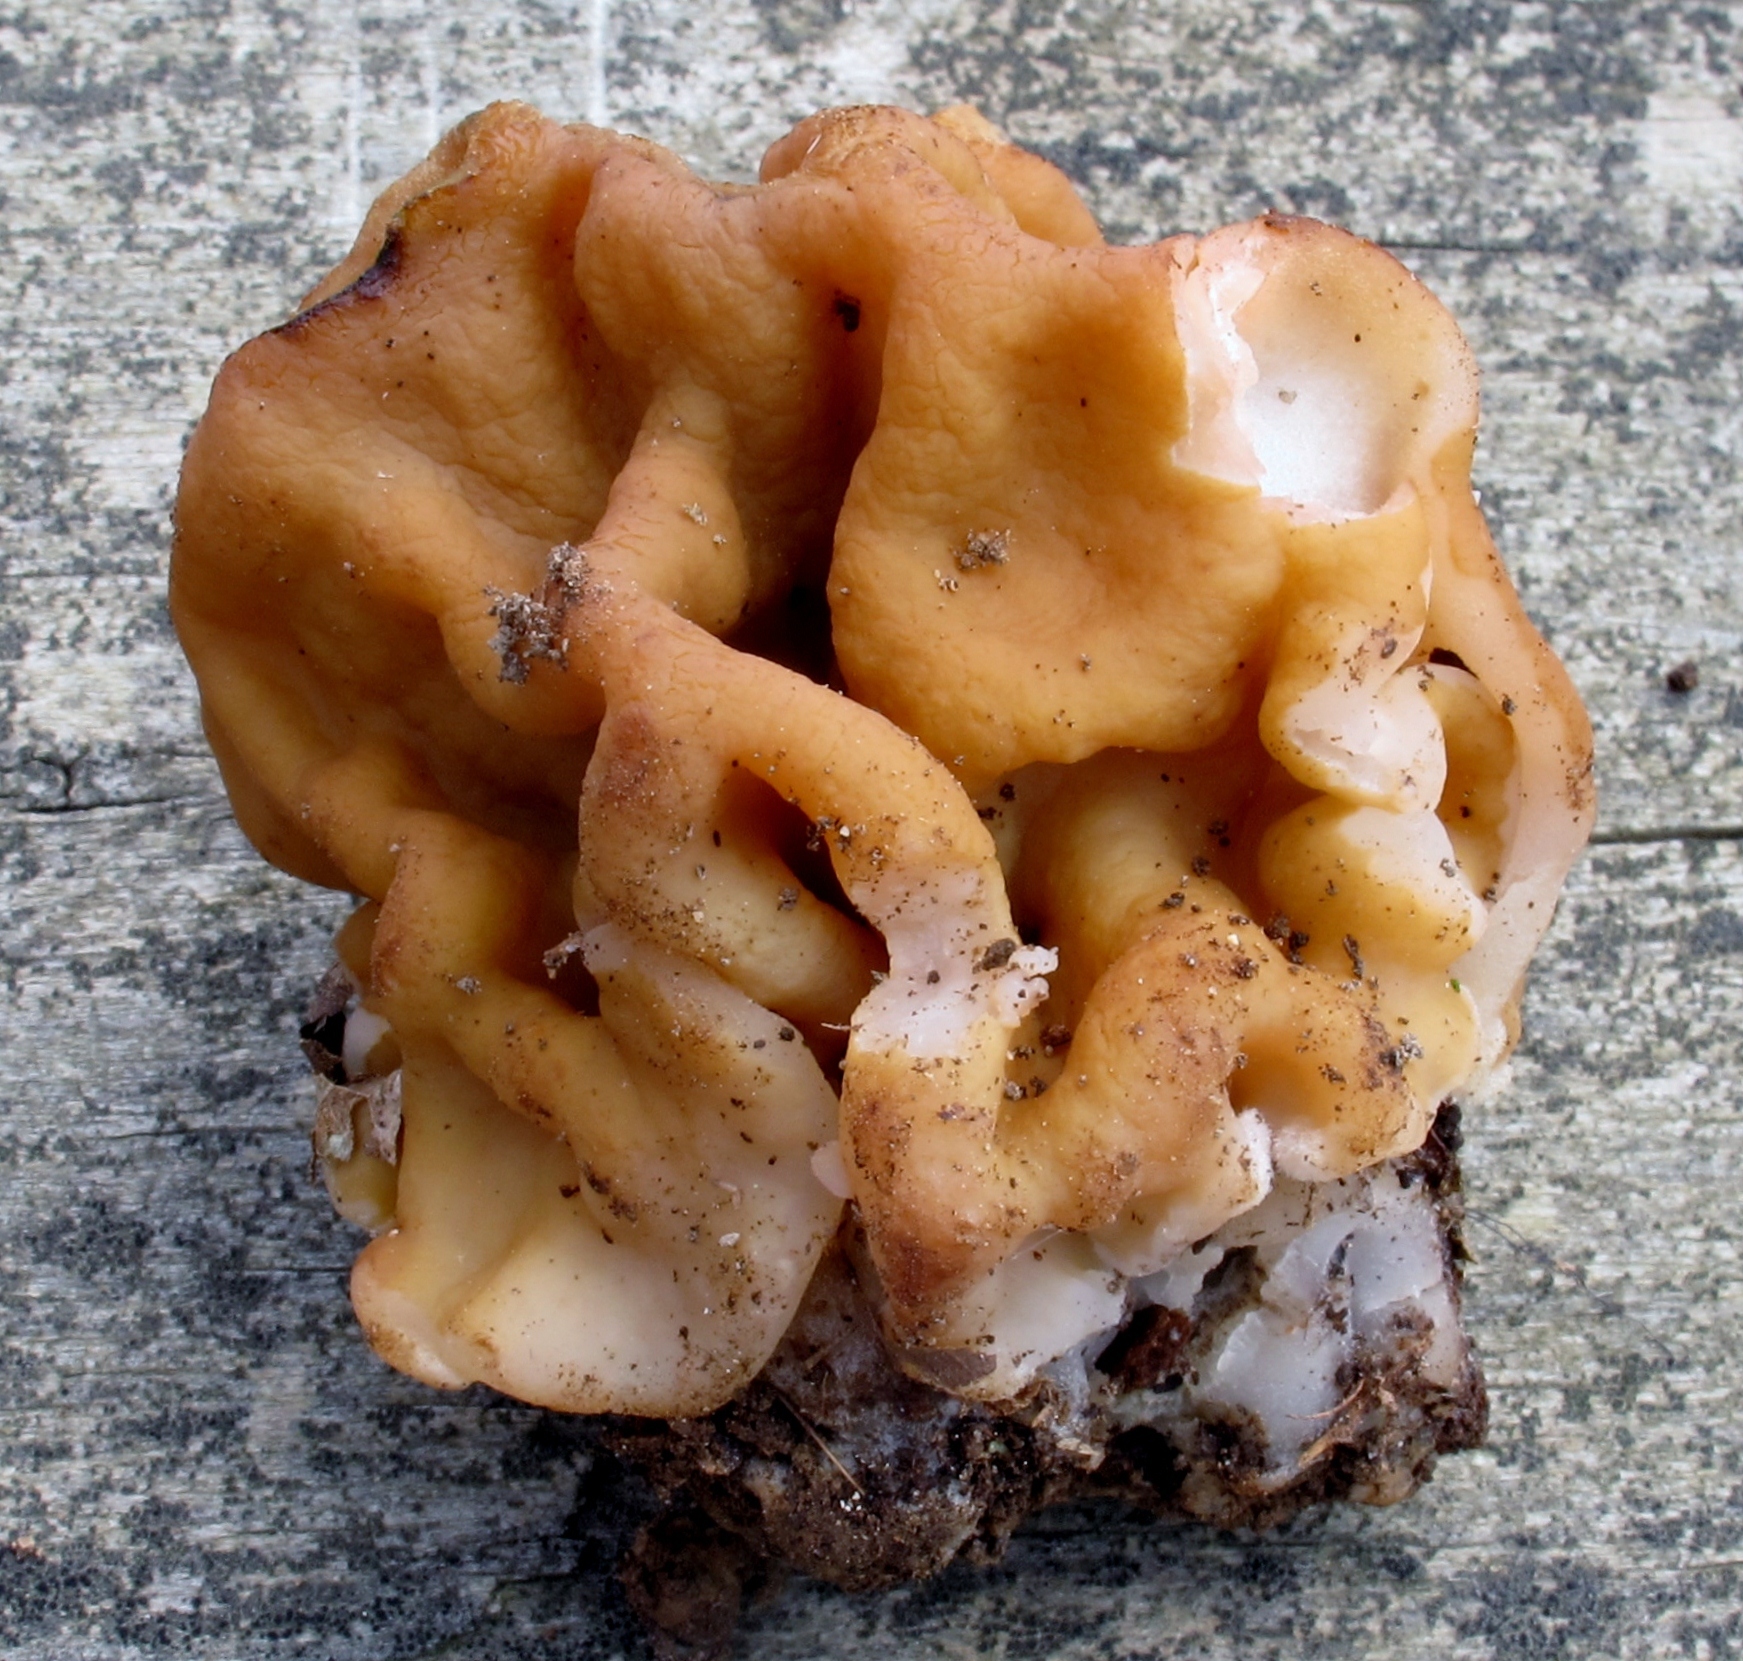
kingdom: Fungi
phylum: Ascomycota
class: Pezizomycetes
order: Pezizales
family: Discinaceae
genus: Gyromitra
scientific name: Gyromitra korfii
